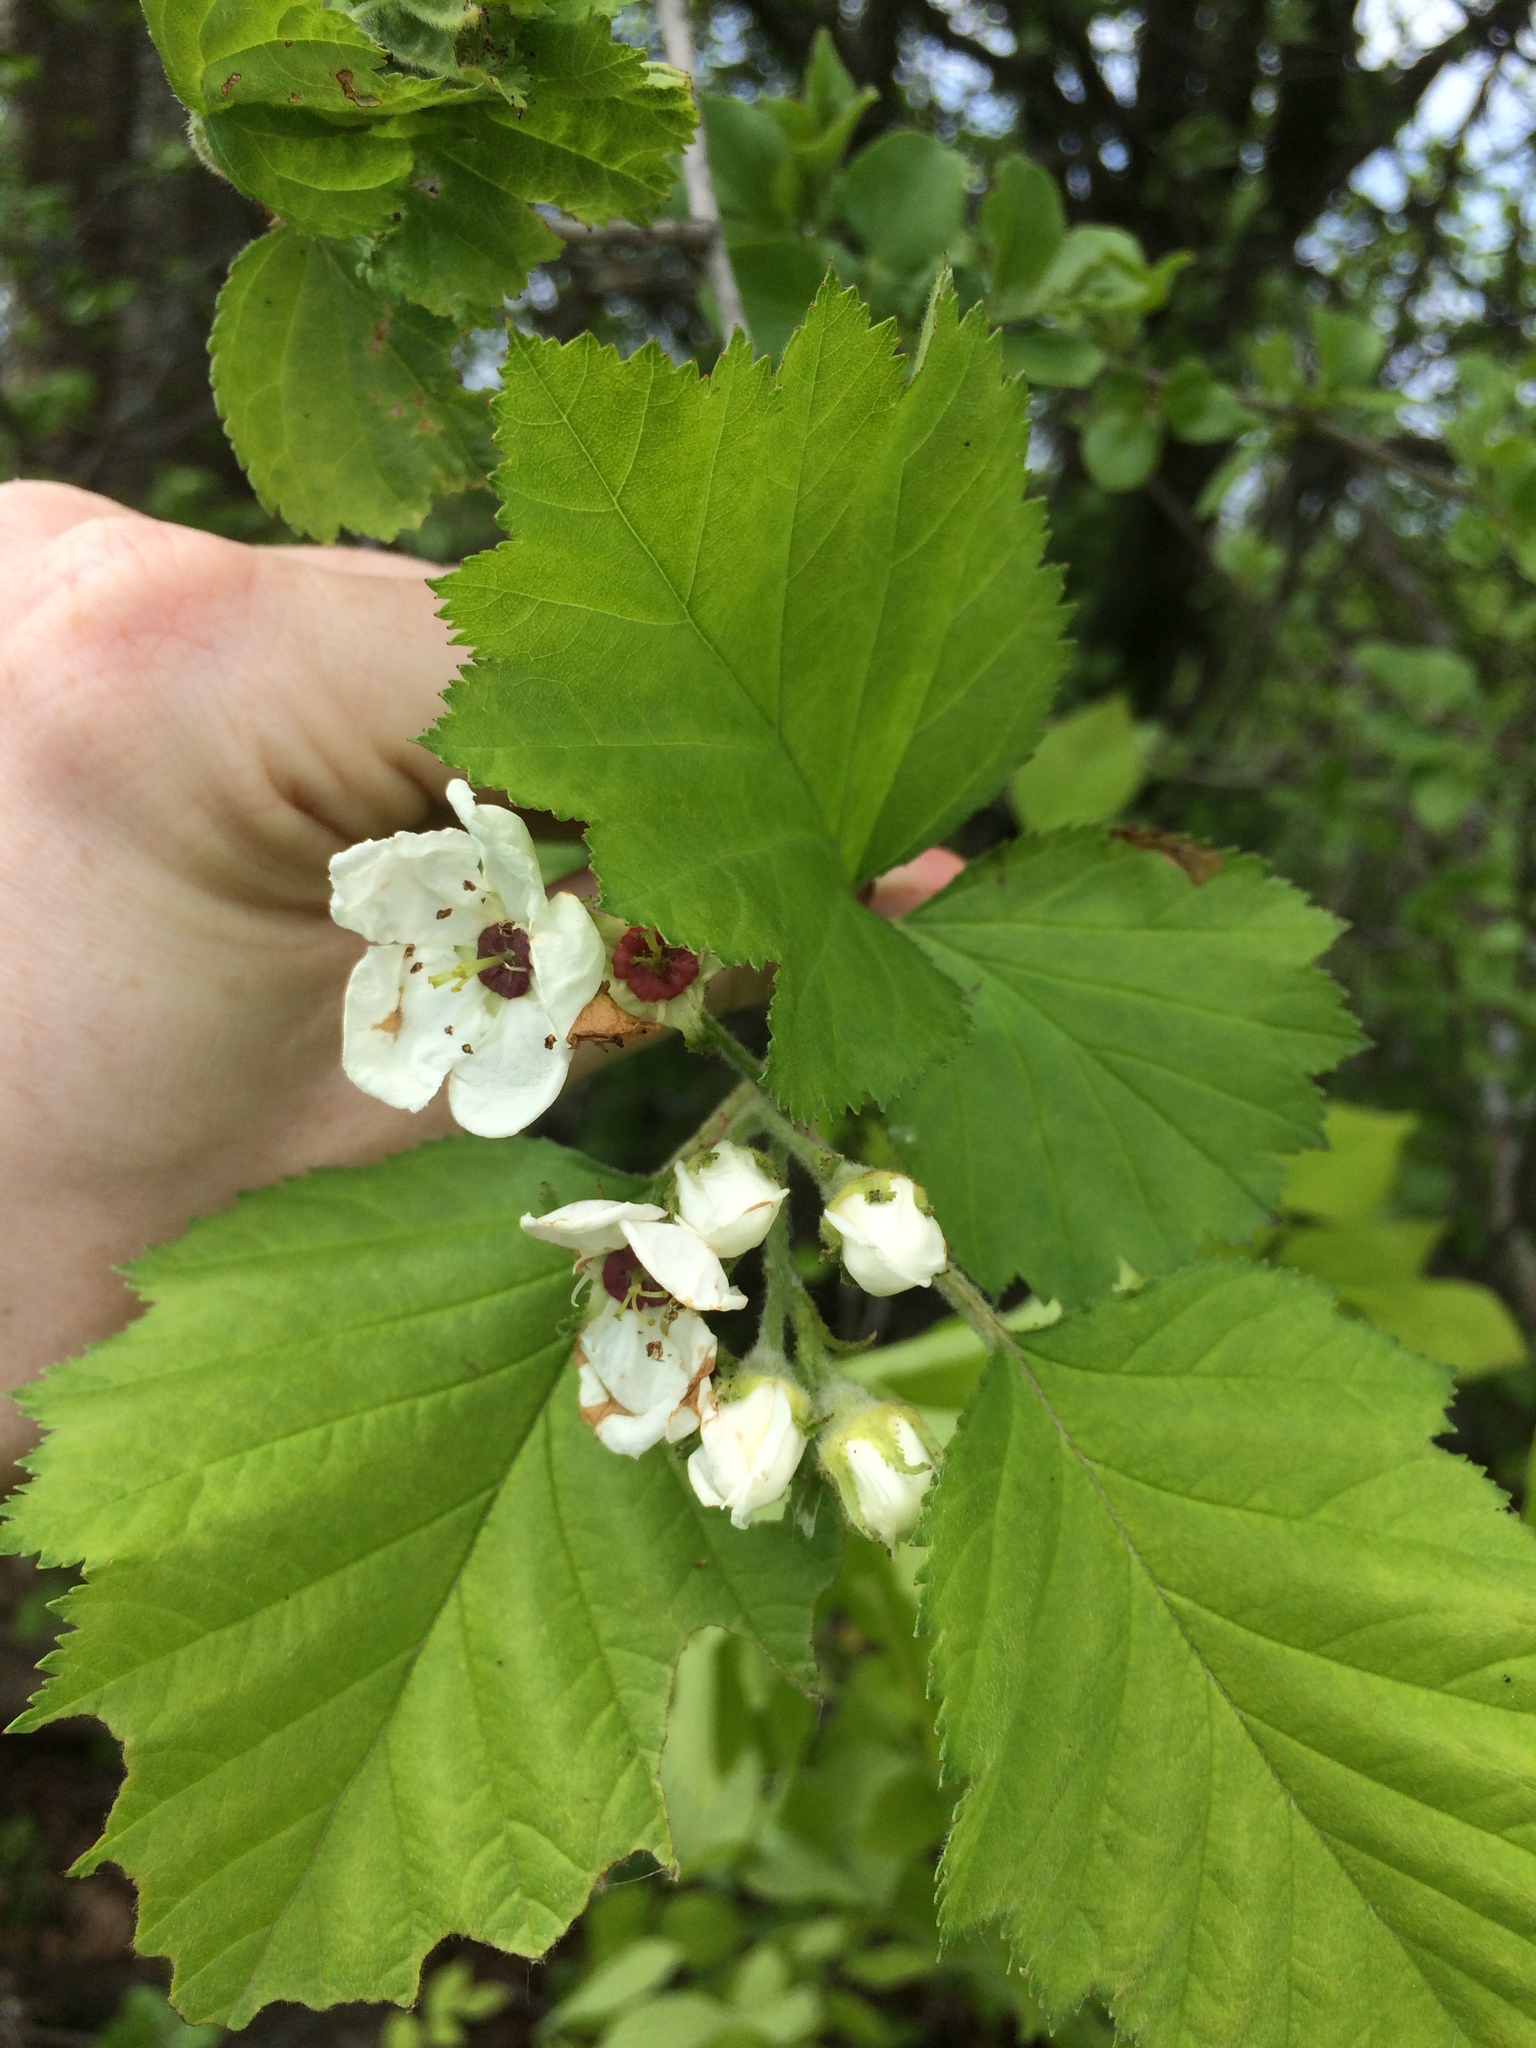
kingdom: Plantae
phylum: Tracheophyta
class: Magnoliopsida
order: Rosales
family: Rosaceae
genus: Crataegus
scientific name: Crataegus submollis
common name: Hairy cockspurthorn
